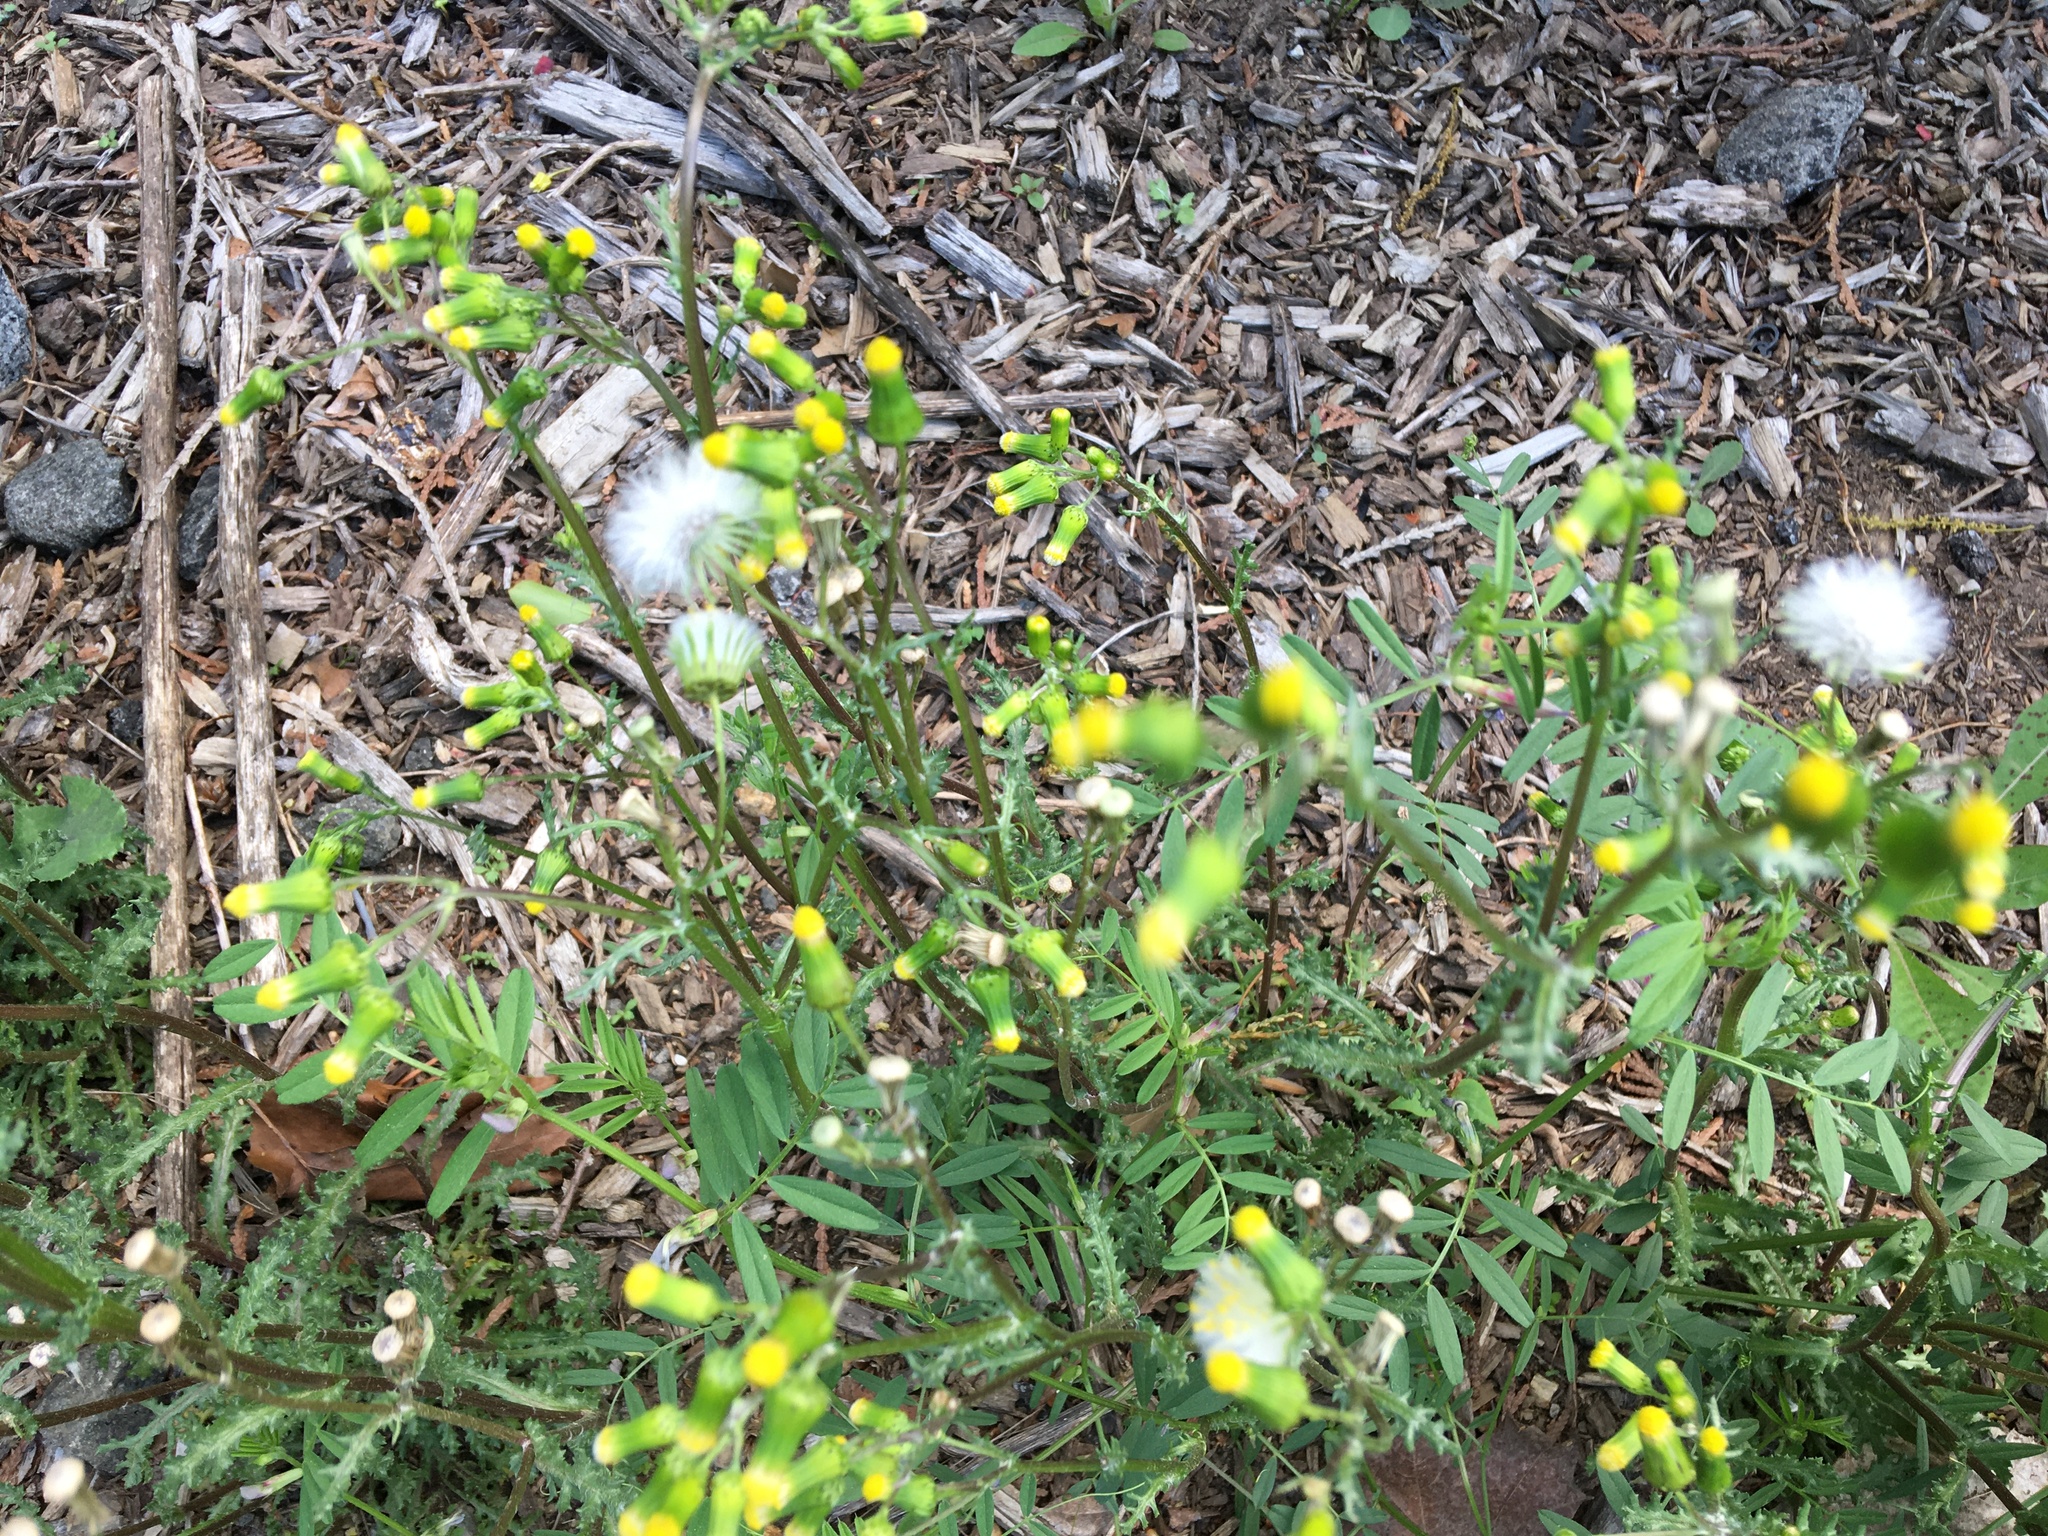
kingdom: Plantae
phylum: Tracheophyta
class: Magnoliopsida
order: Asterales
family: Asteraceae
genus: Senecio
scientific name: Senecio vulgaris
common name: Old-man-in-the-spring
